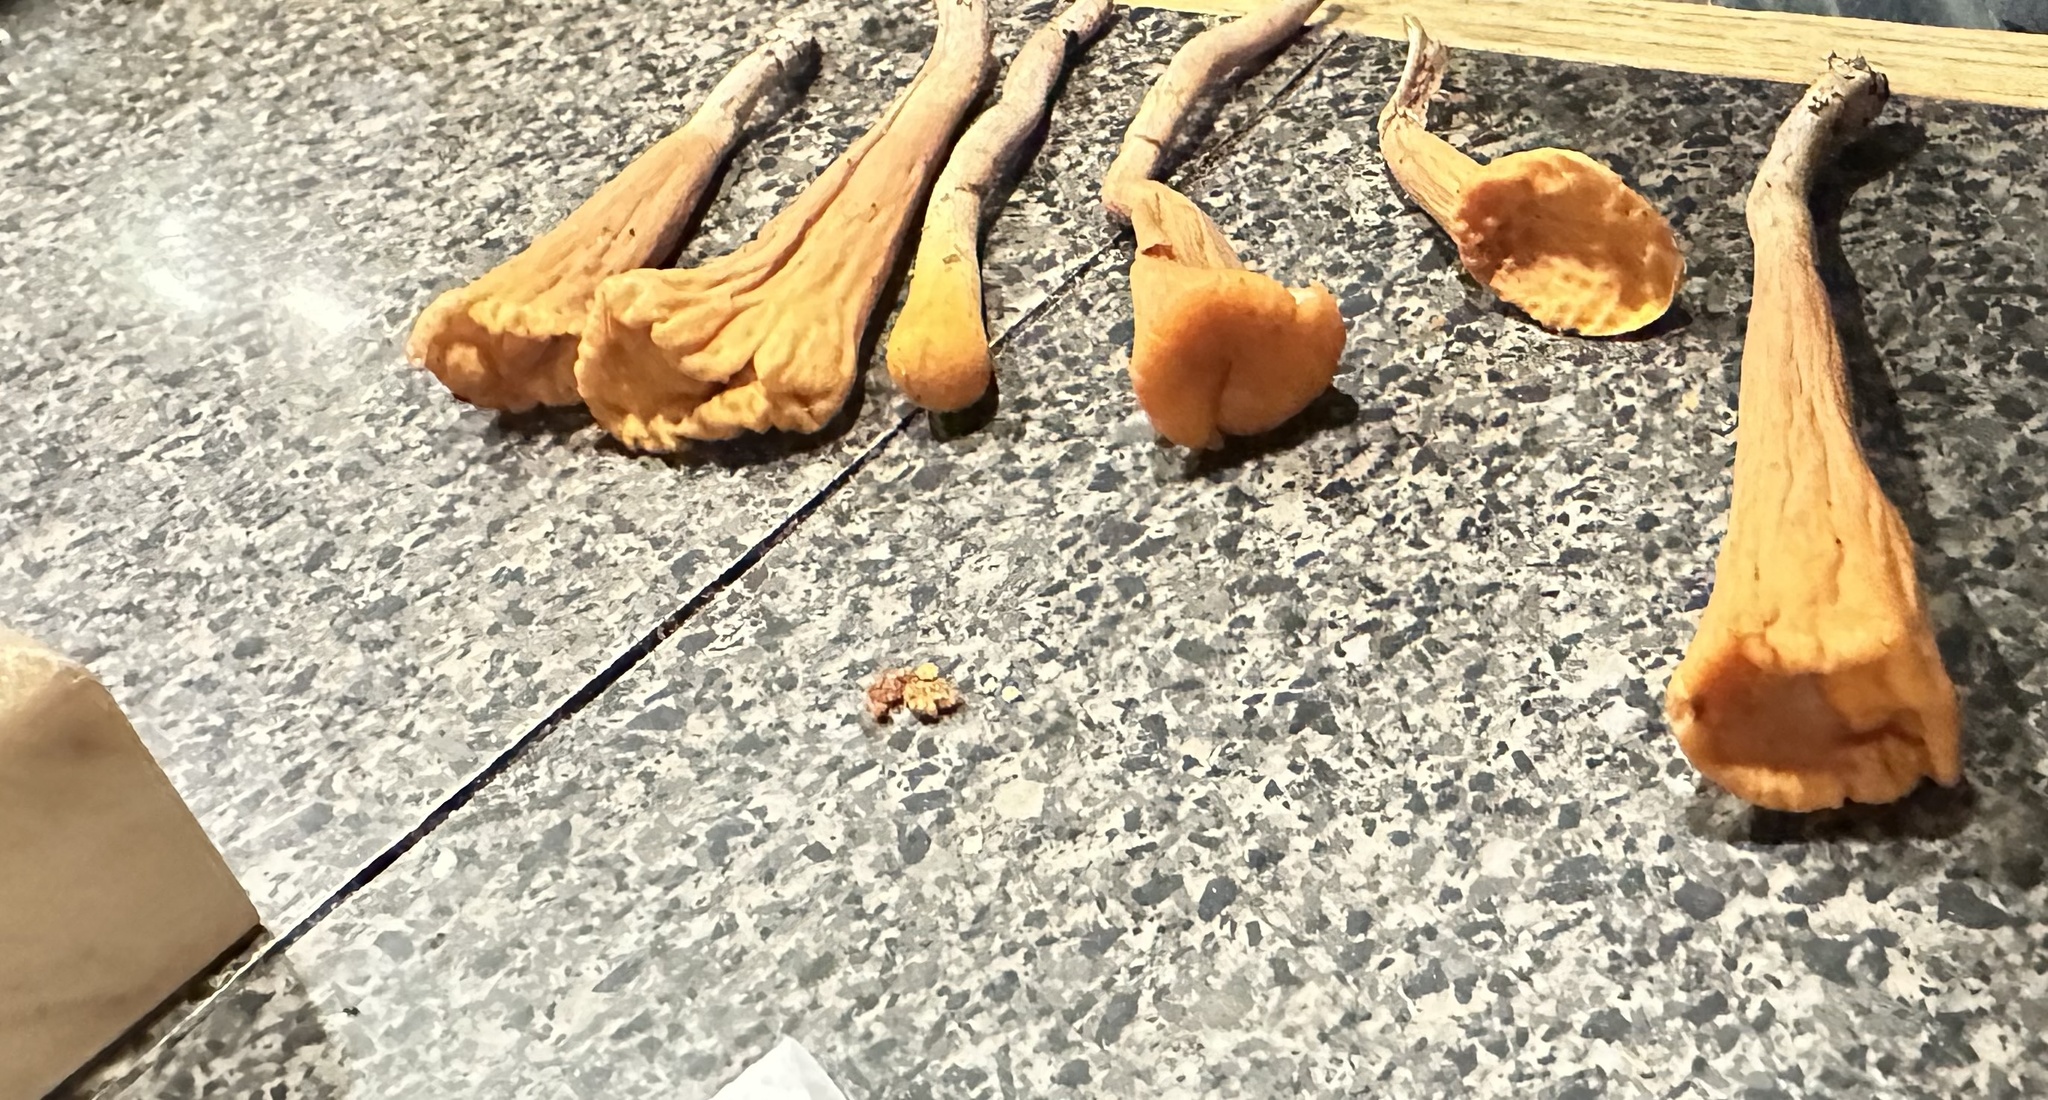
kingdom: Fungi
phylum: Basidiomycota
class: Agaricomycetes
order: Gomphales
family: Clavariadelphaceae
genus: Clavariadelphus
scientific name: Clavariadelphus truncatus
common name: Truncated club
